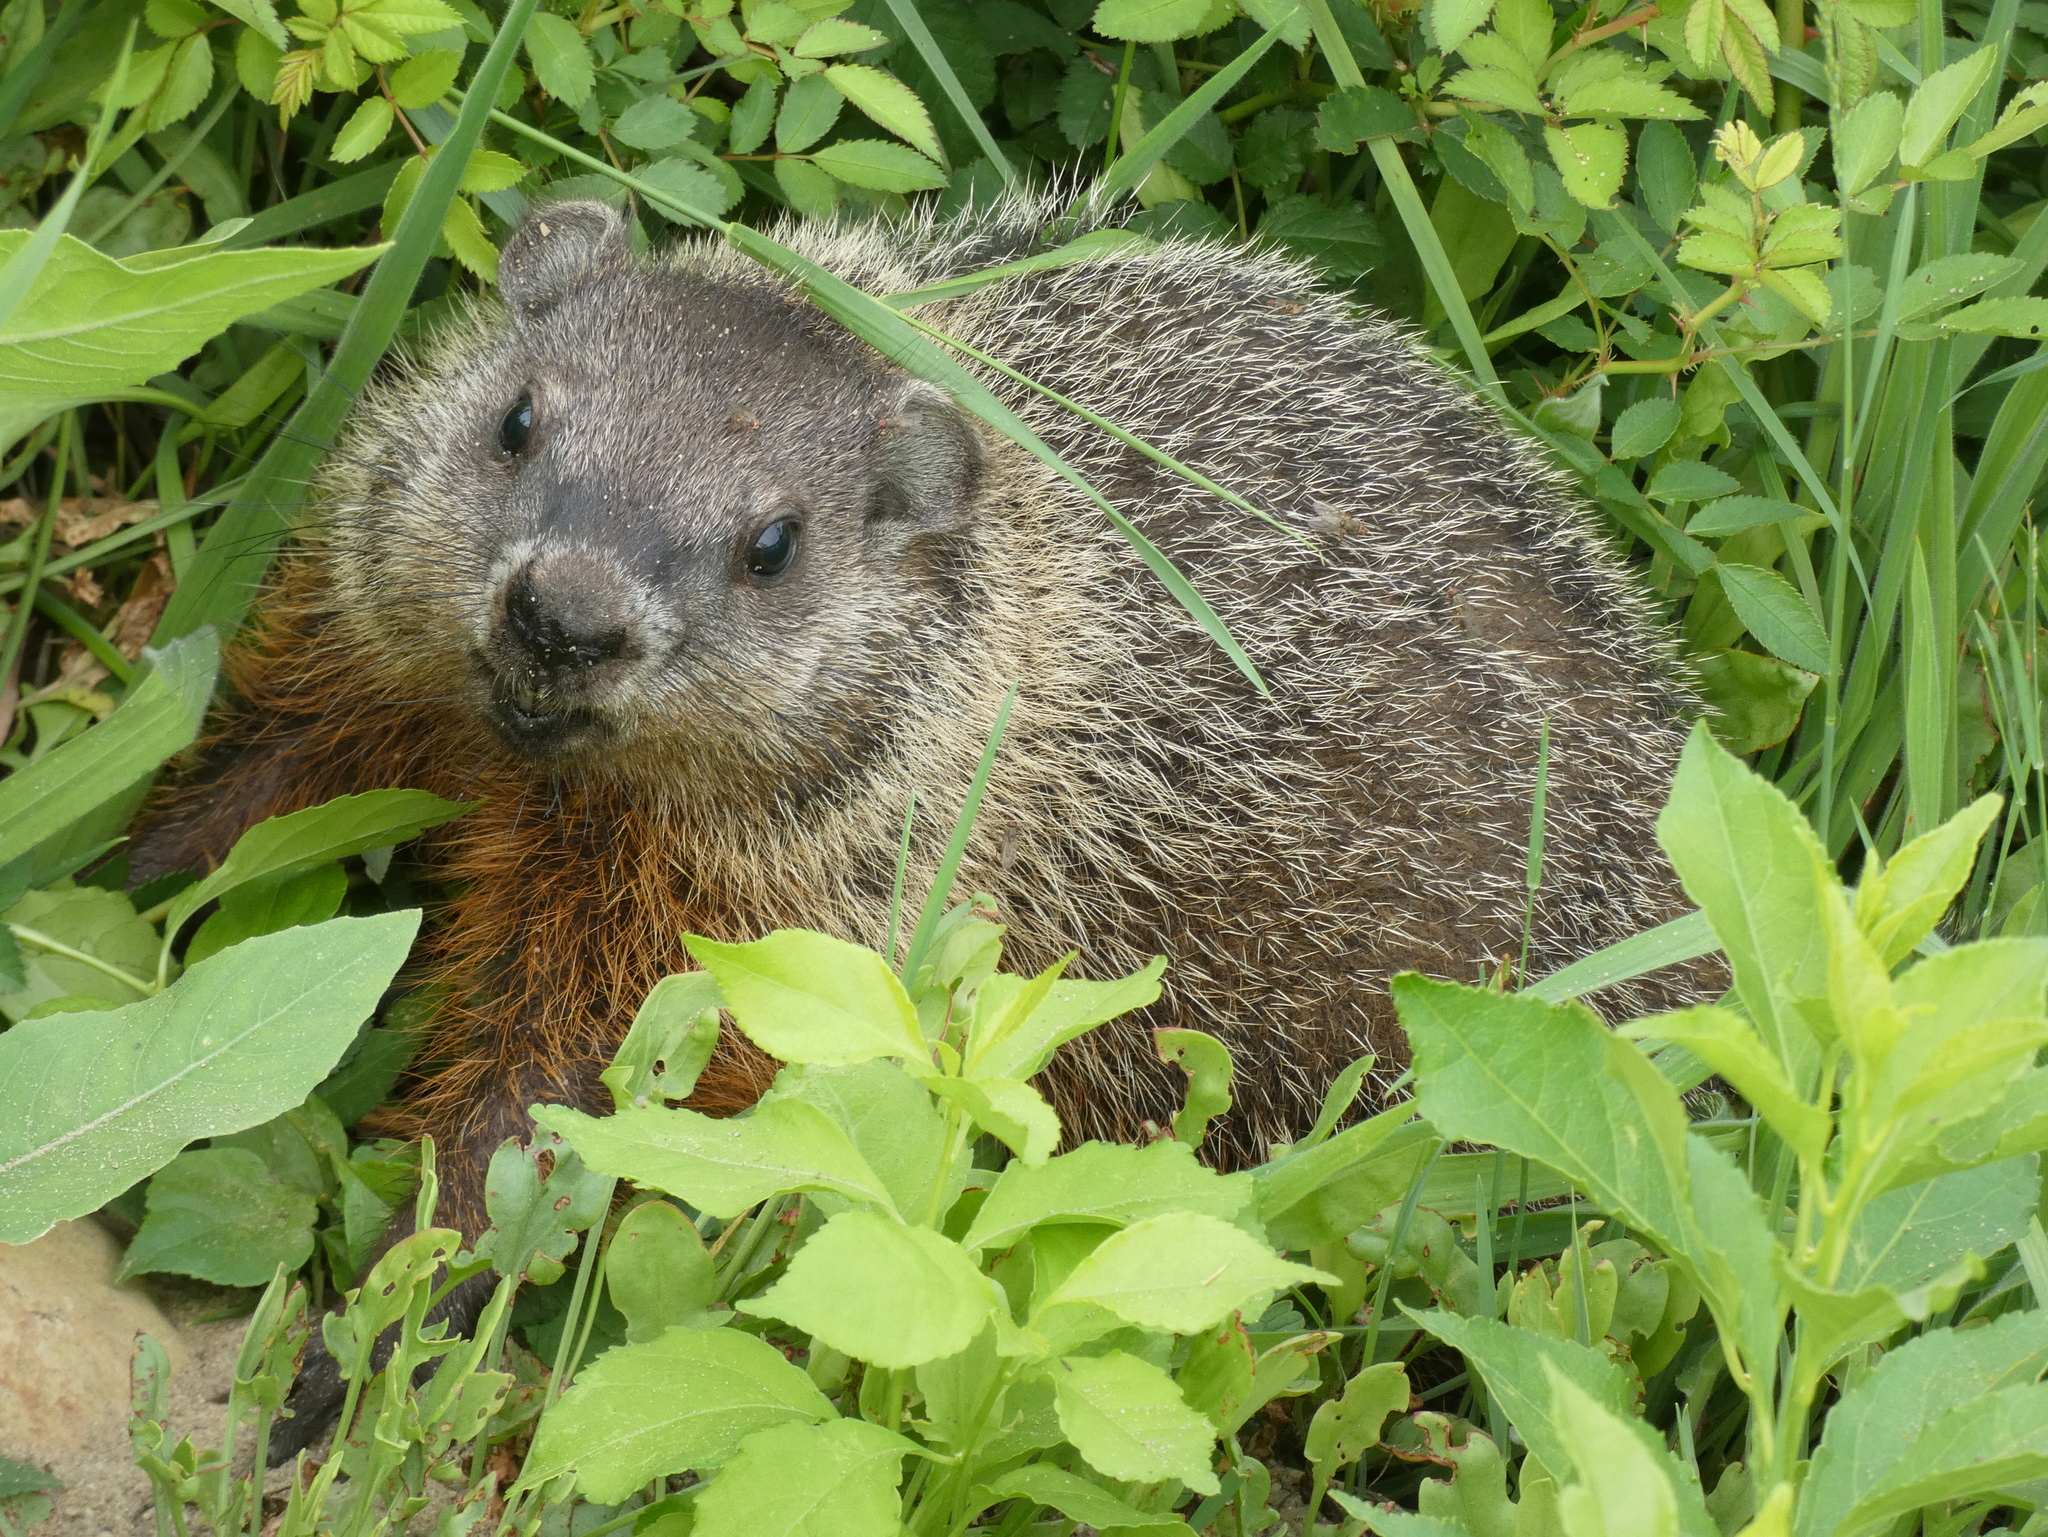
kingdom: Animalia
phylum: Chordata
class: Mammalia
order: Rodentia
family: Sciuridae
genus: Marmota
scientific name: Marmota monax
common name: Groundhog
